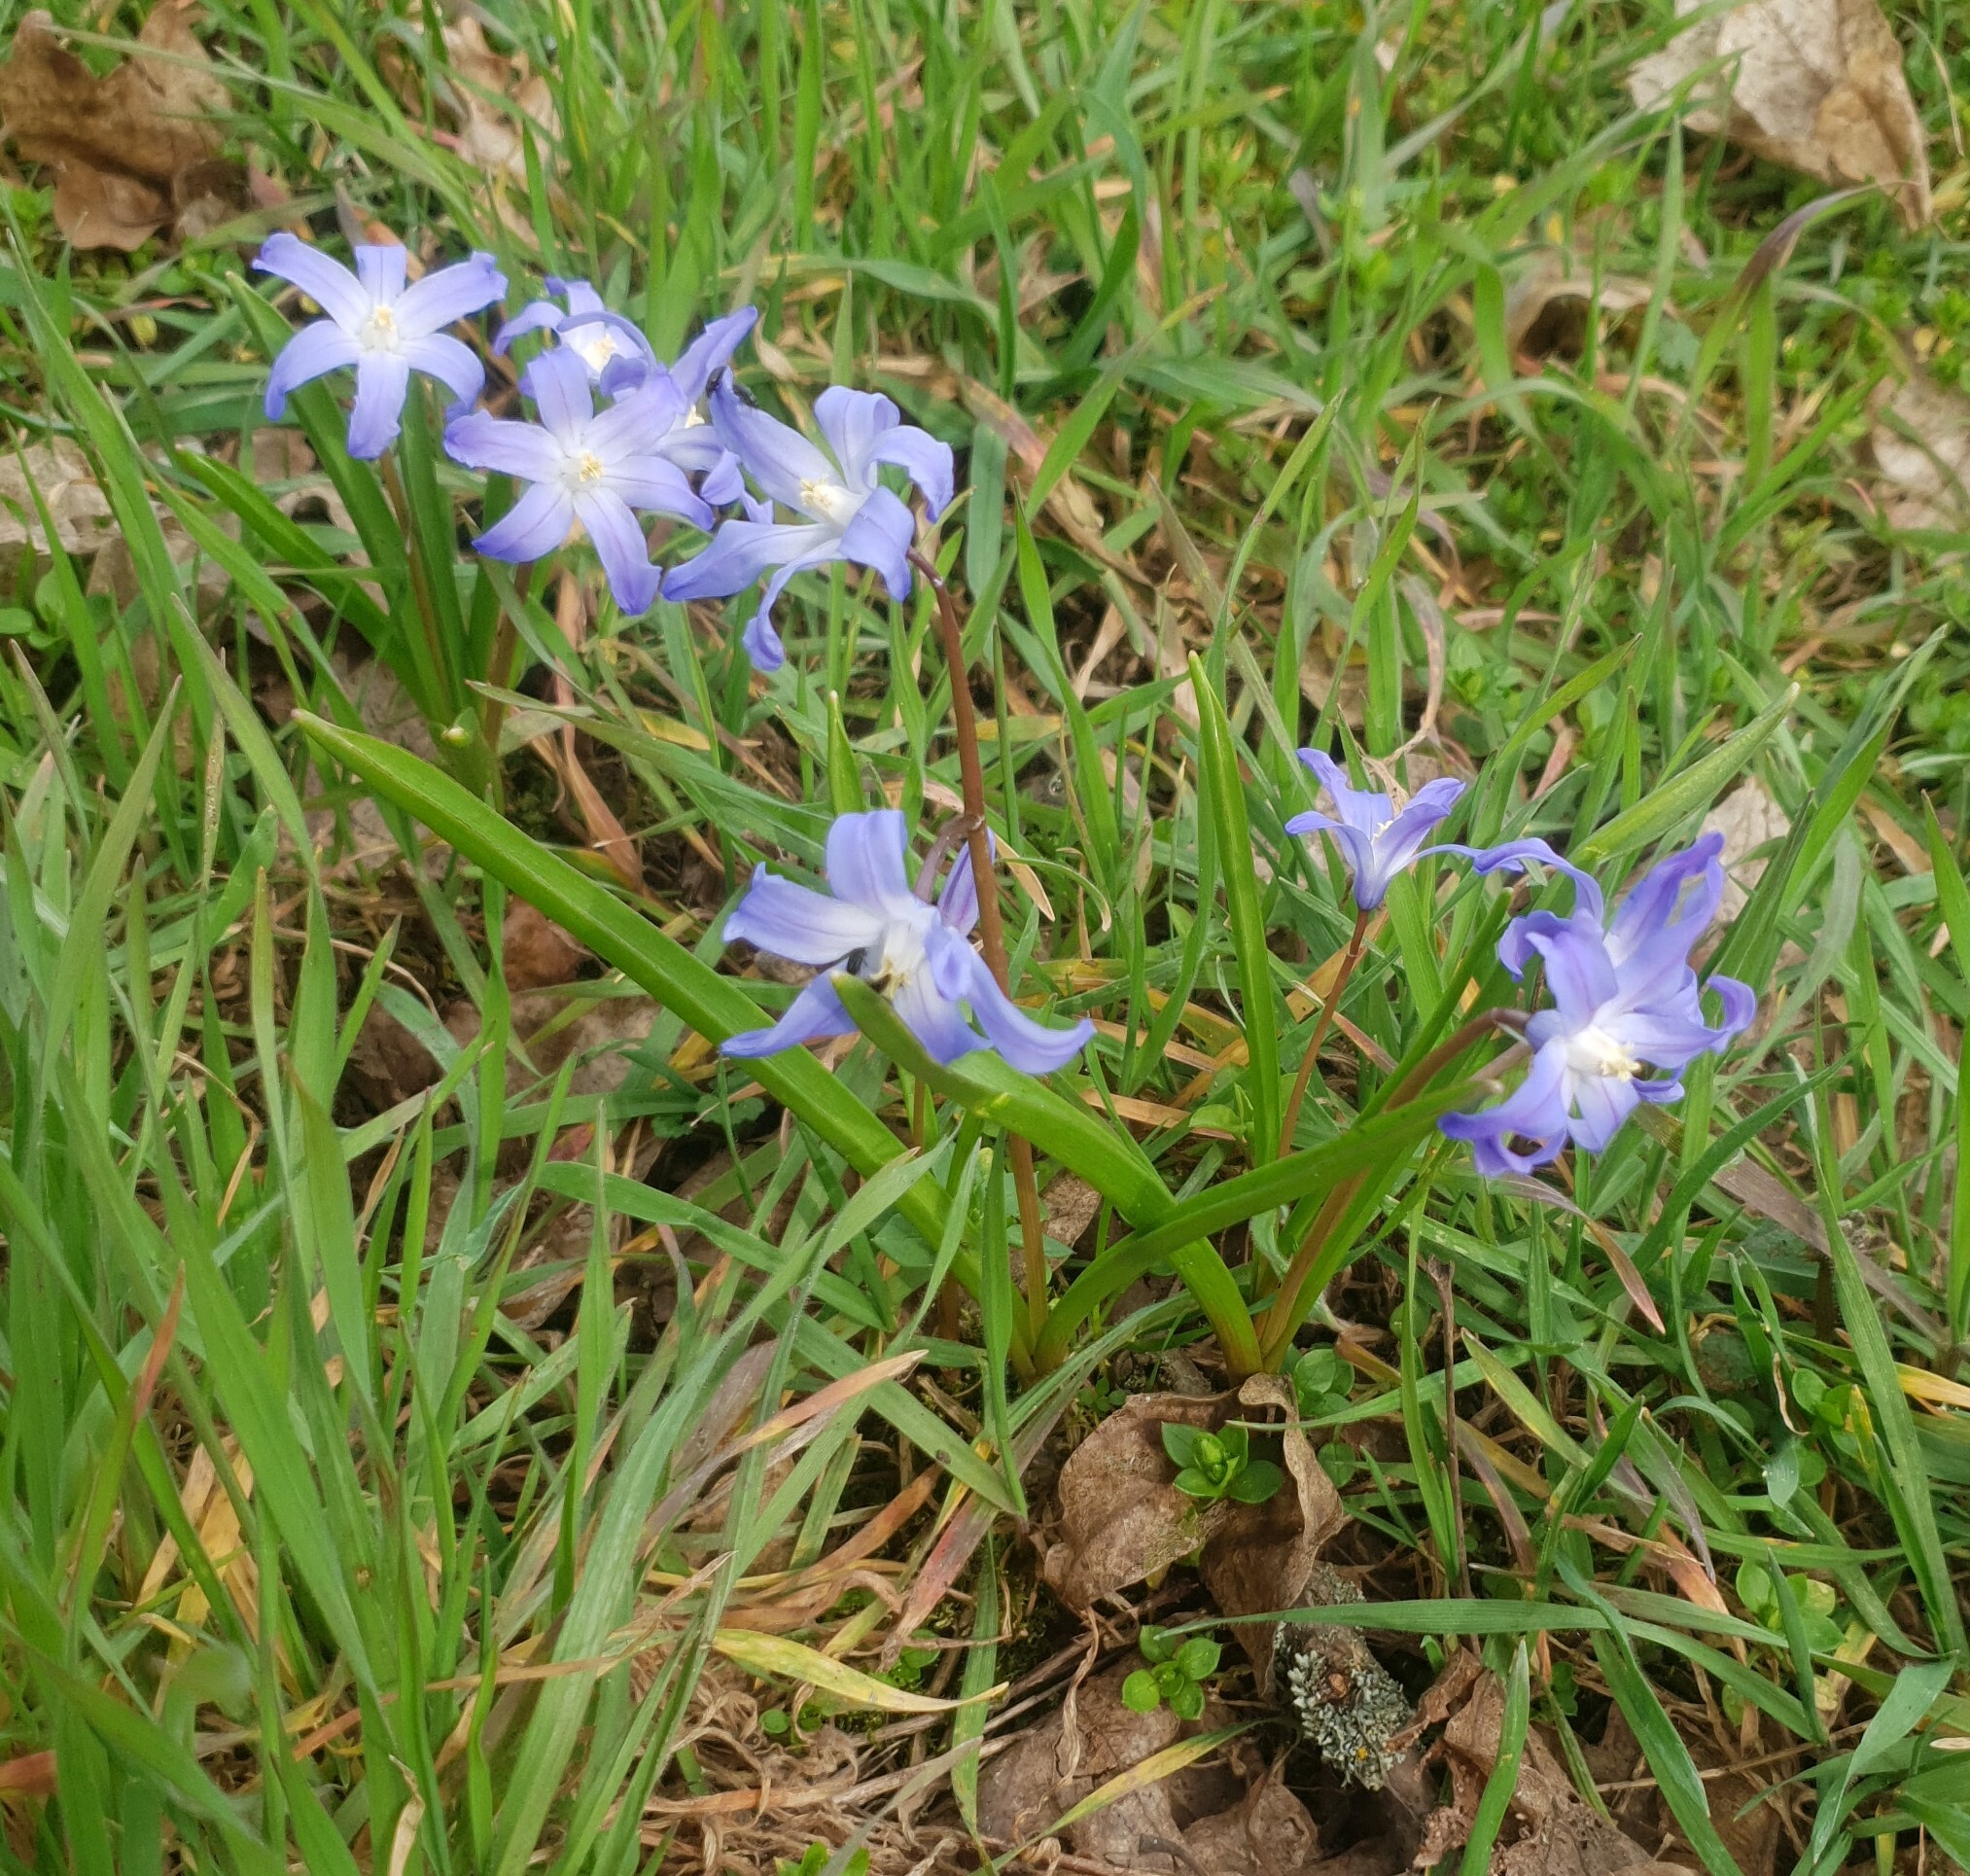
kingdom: Plantae
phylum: Tracheophyta
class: Liliopsida
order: Asparagales
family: Asparagaceae
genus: Scilla
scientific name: Scilla luciliae
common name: Boissier's glory-of-the-snow
